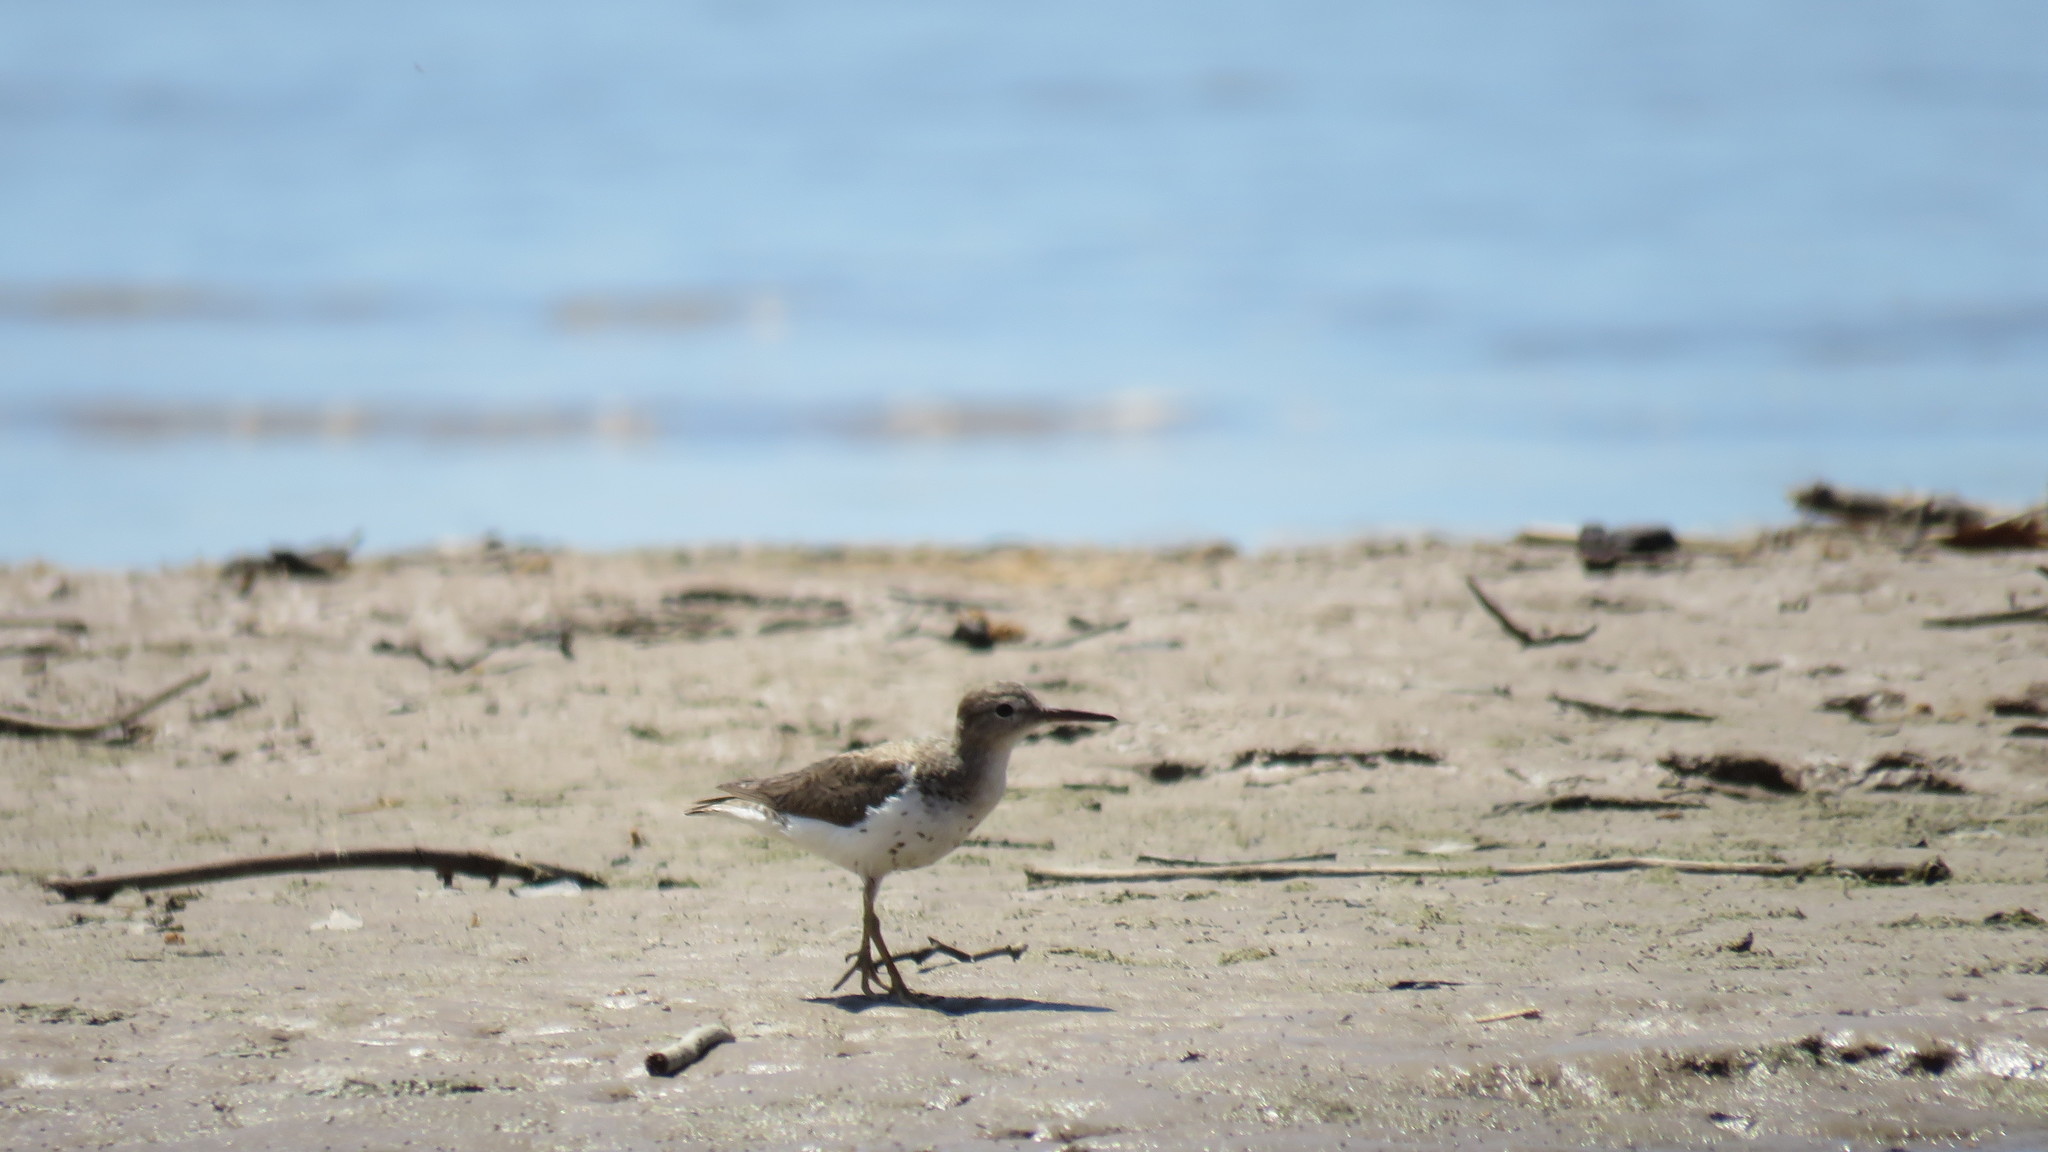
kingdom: Animalia
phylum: Chordata
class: Aves
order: Charadriiformes
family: Scolopacidae
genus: Actitis
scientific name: Actitis macularius
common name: Spotted sandpiper
